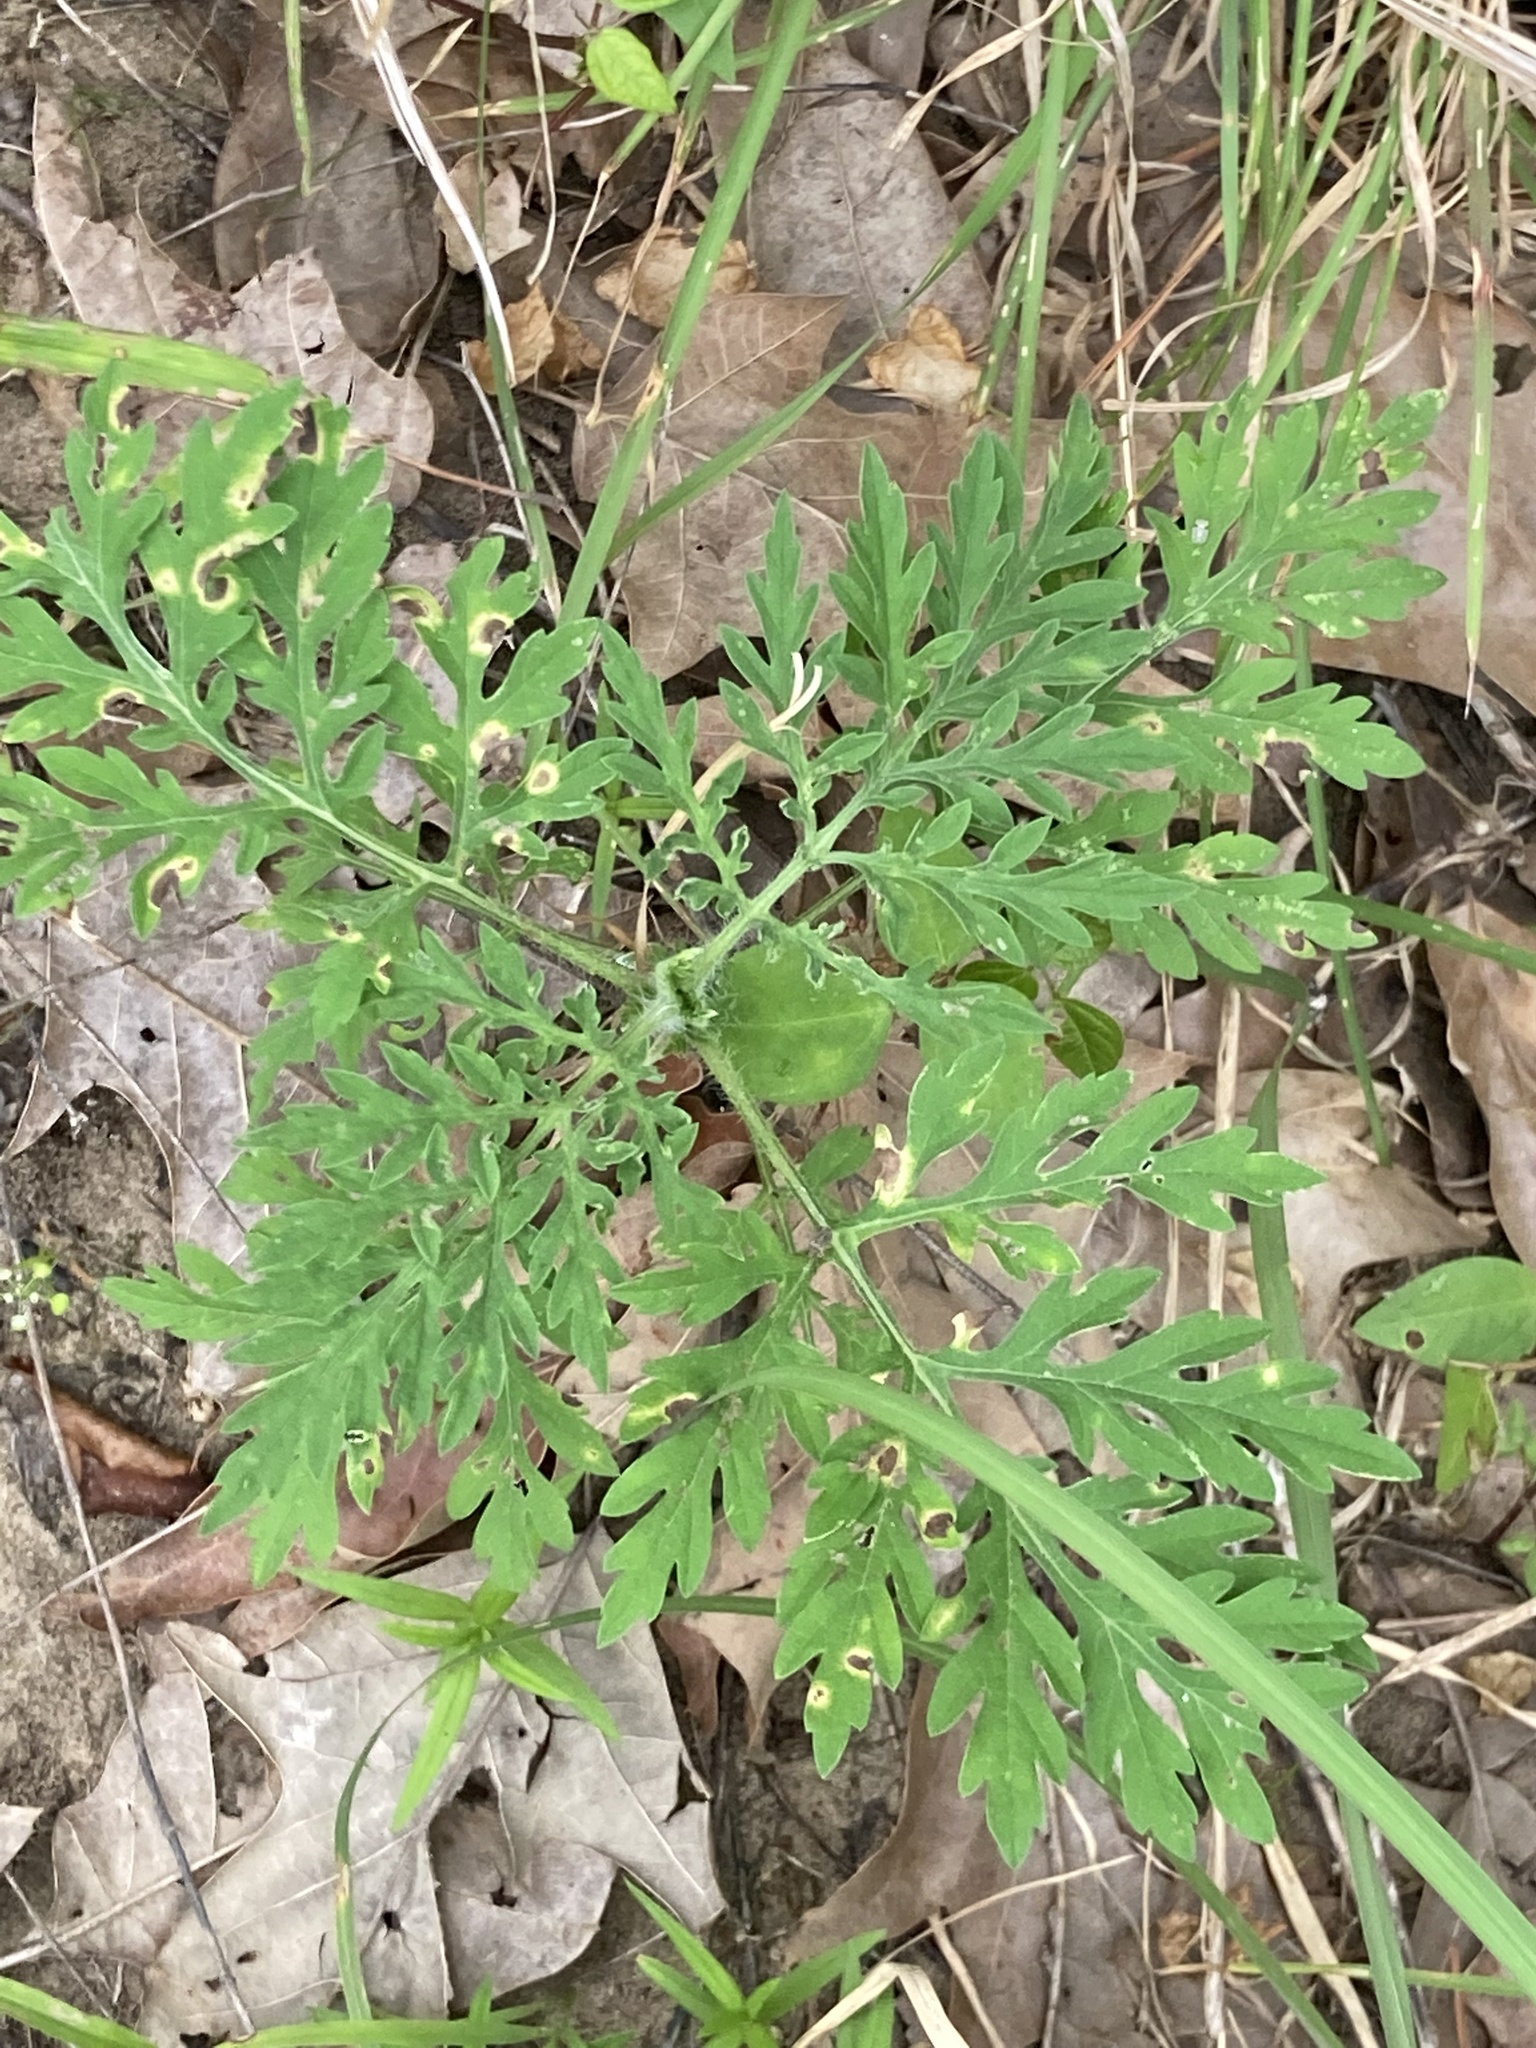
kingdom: Plantae
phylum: Tracheophyta
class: Magnoliopsida
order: Asterales
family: Asteraceae
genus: Ambrosia
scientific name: Ambrosia artemisiifolia
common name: Annual ragweed
